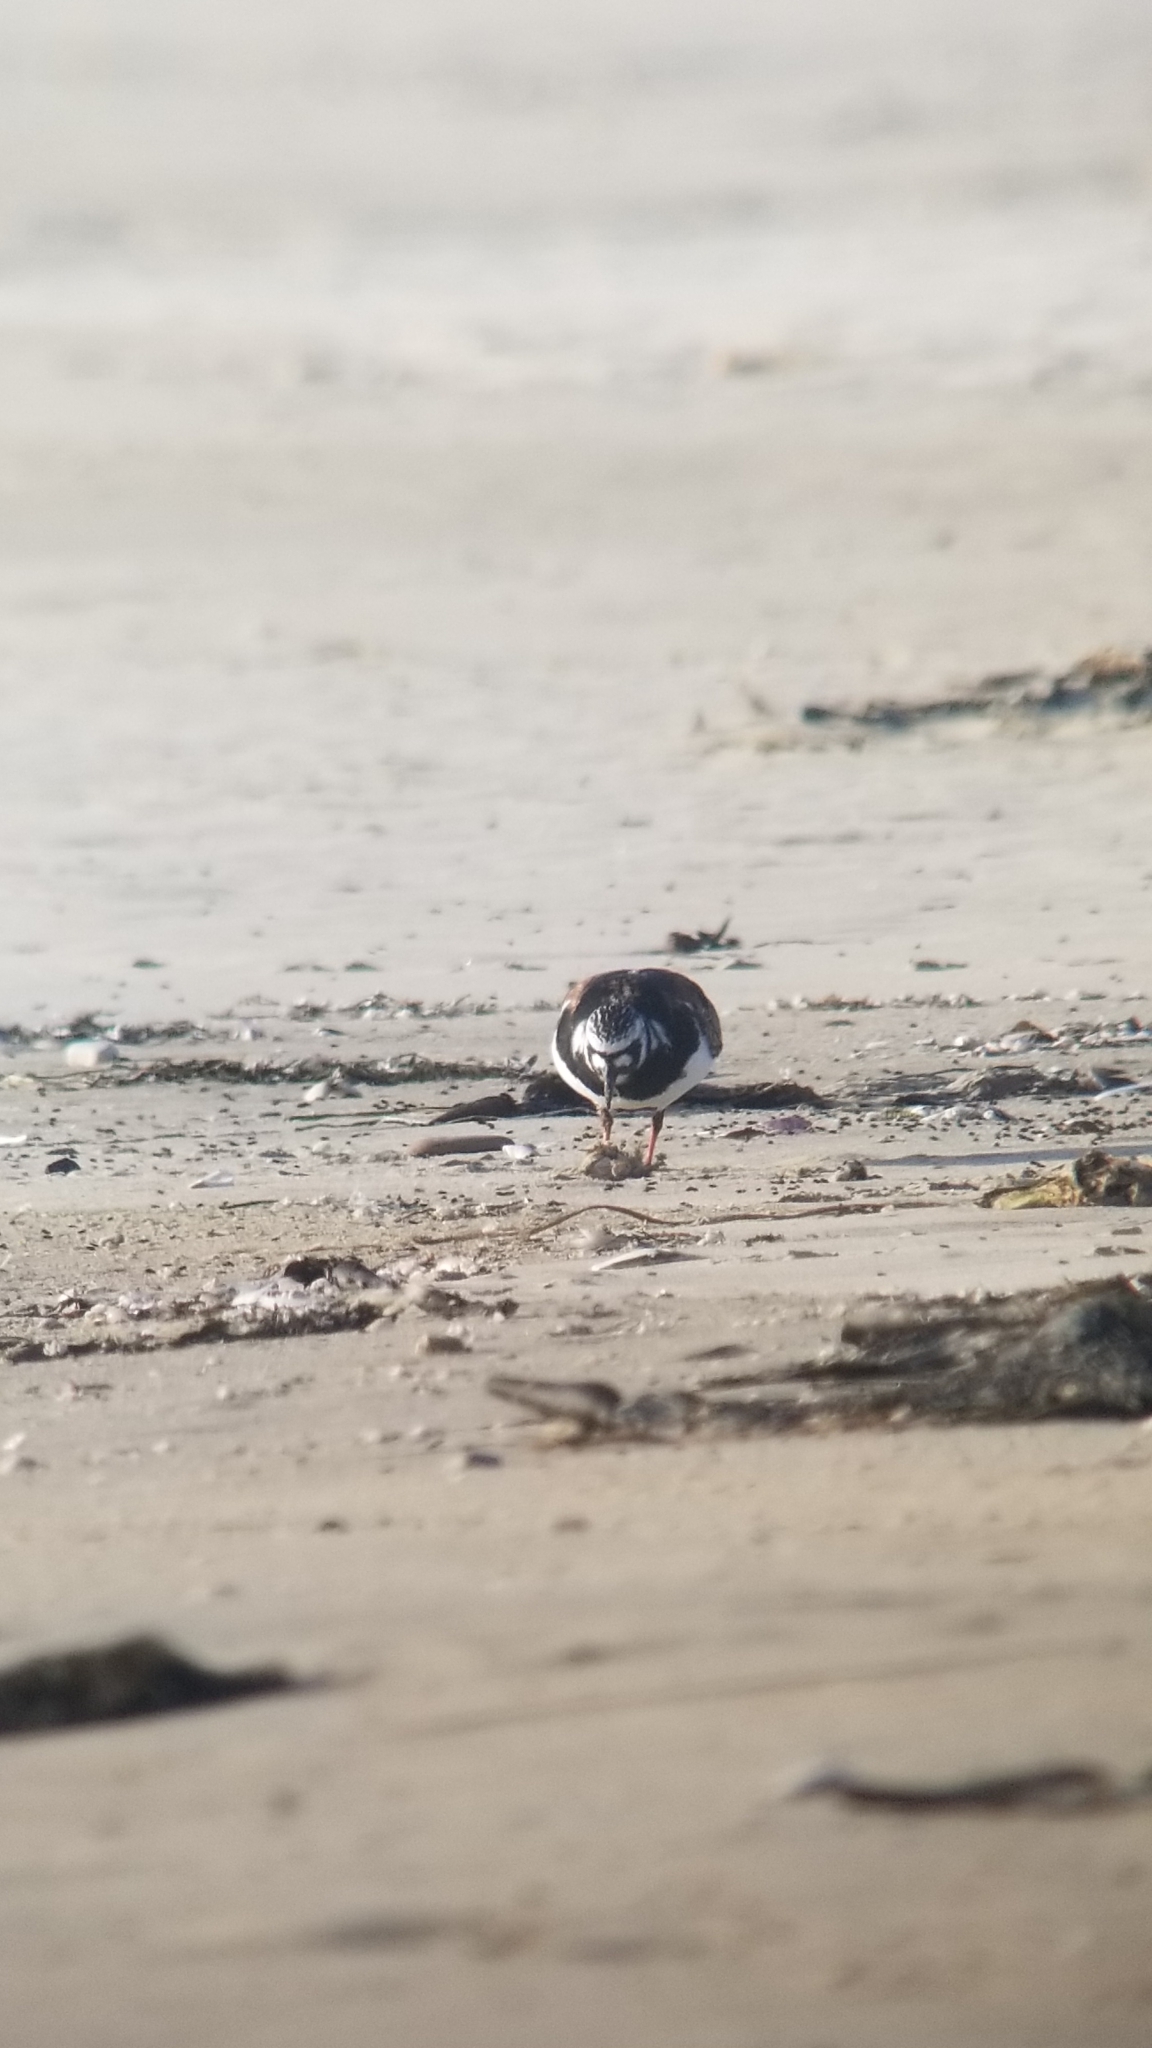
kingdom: Animalia
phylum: Chordata
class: Aves
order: Charadriiformes
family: Scolopacidae
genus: Arenaria
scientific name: Arenaria interpres
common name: Ruddy turnstone
